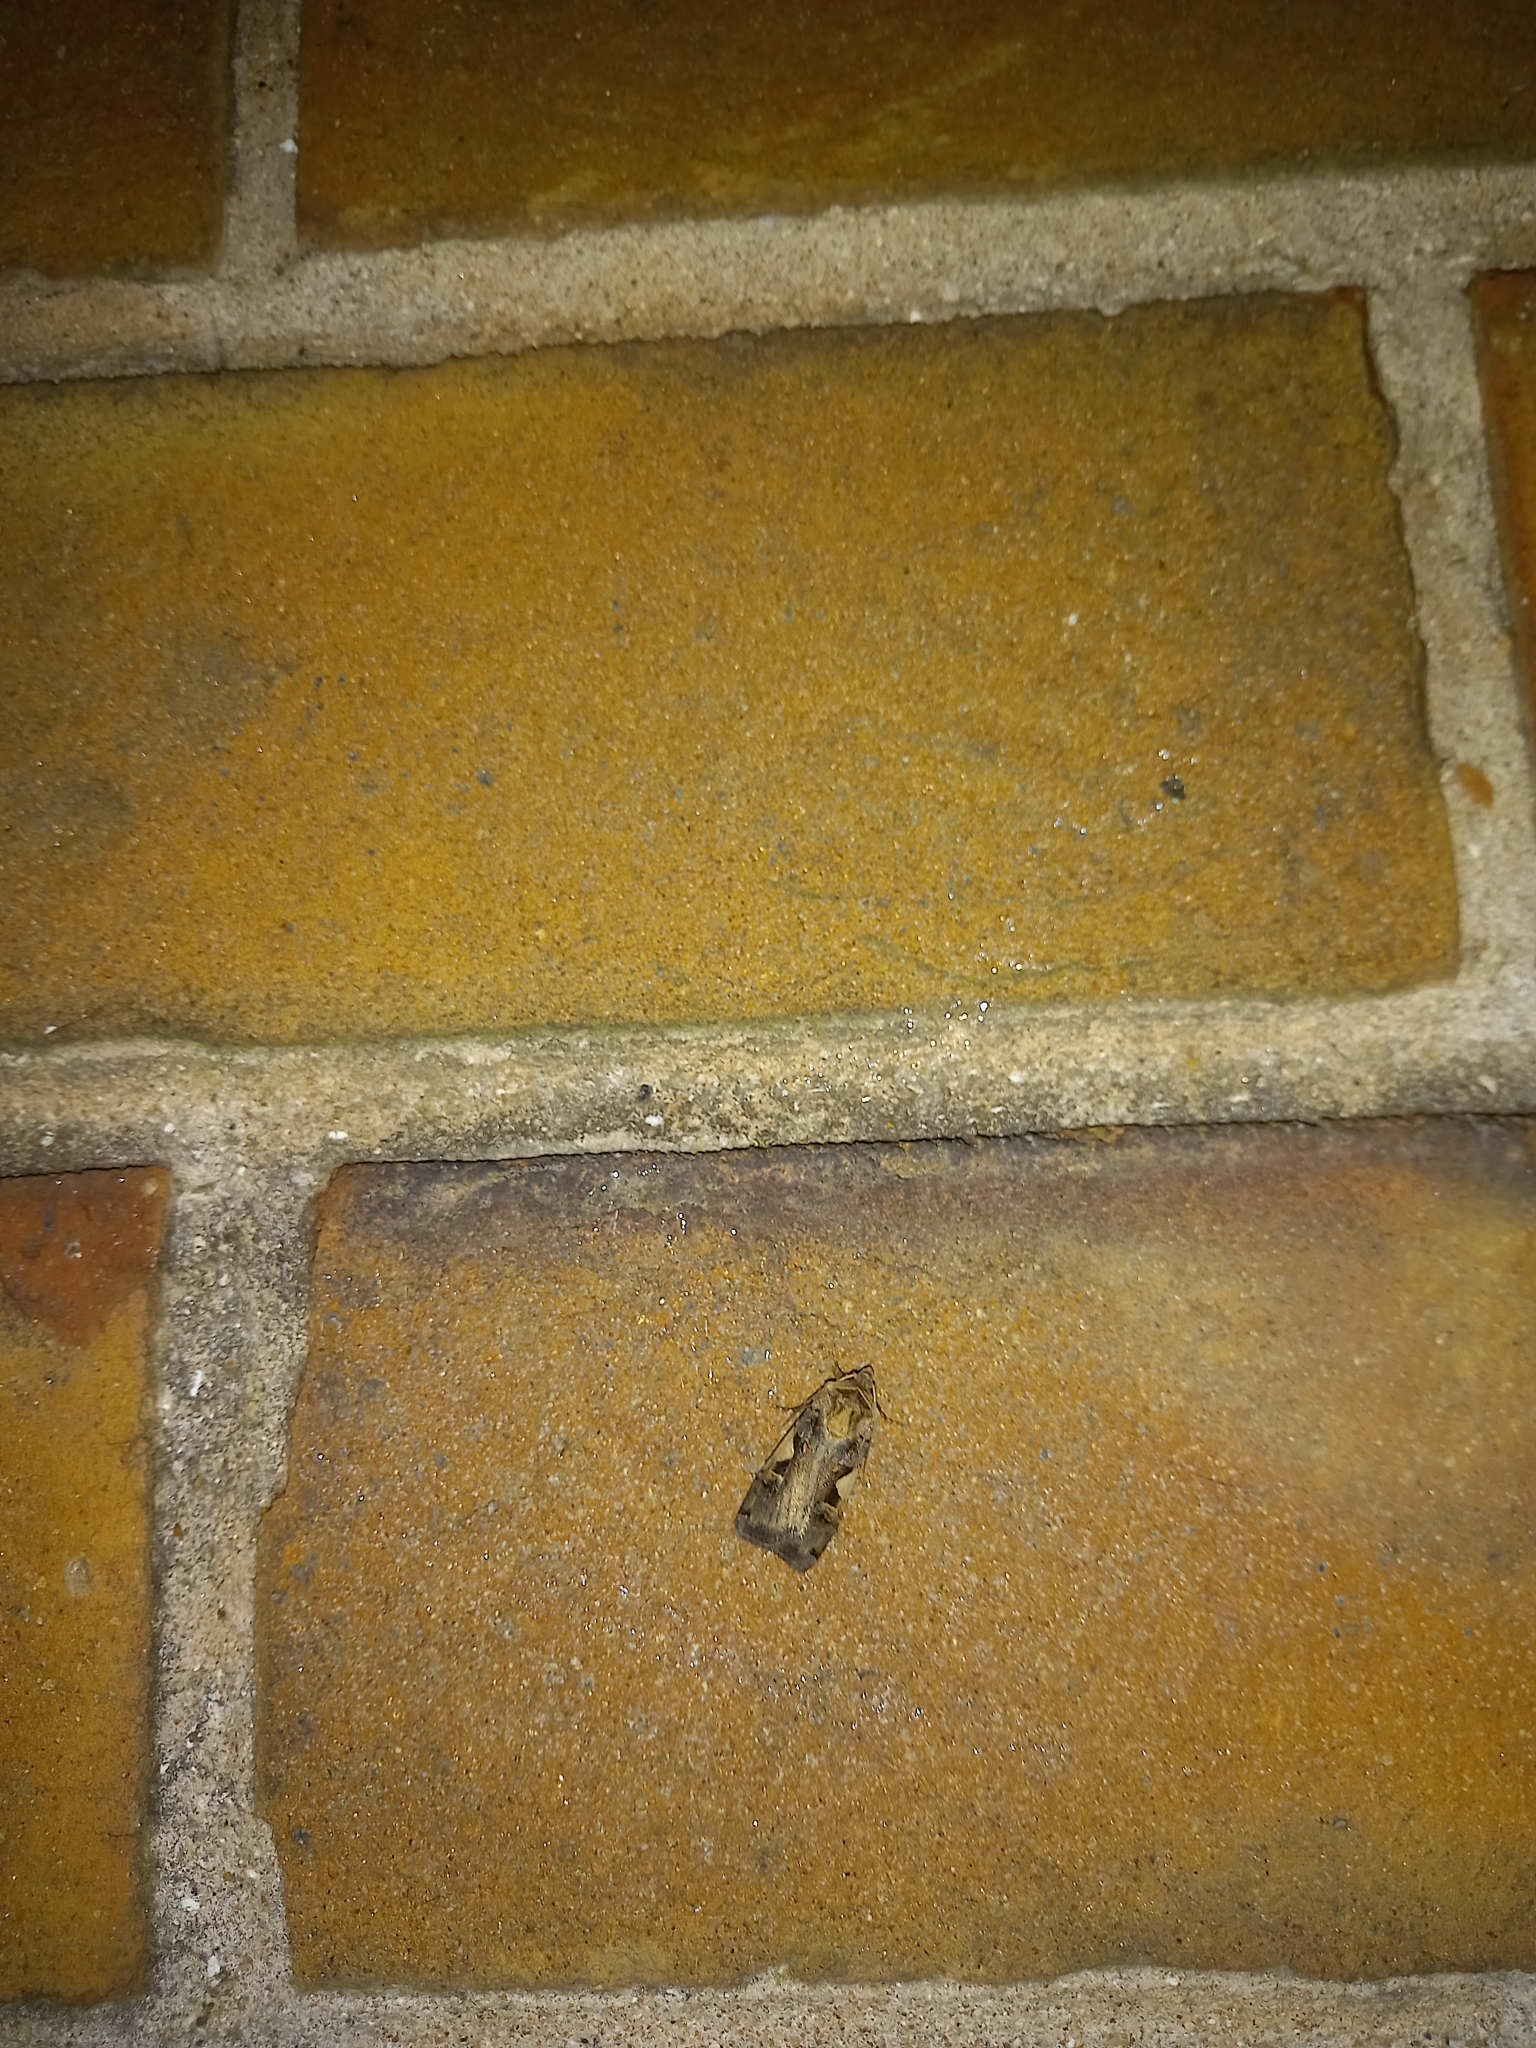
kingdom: Animalia
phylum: Arthropoda
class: Insecta
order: Lepidoptera
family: Noctuidae
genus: Xestia
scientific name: Xestia c-nigrum
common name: Setaceous hebrew character
